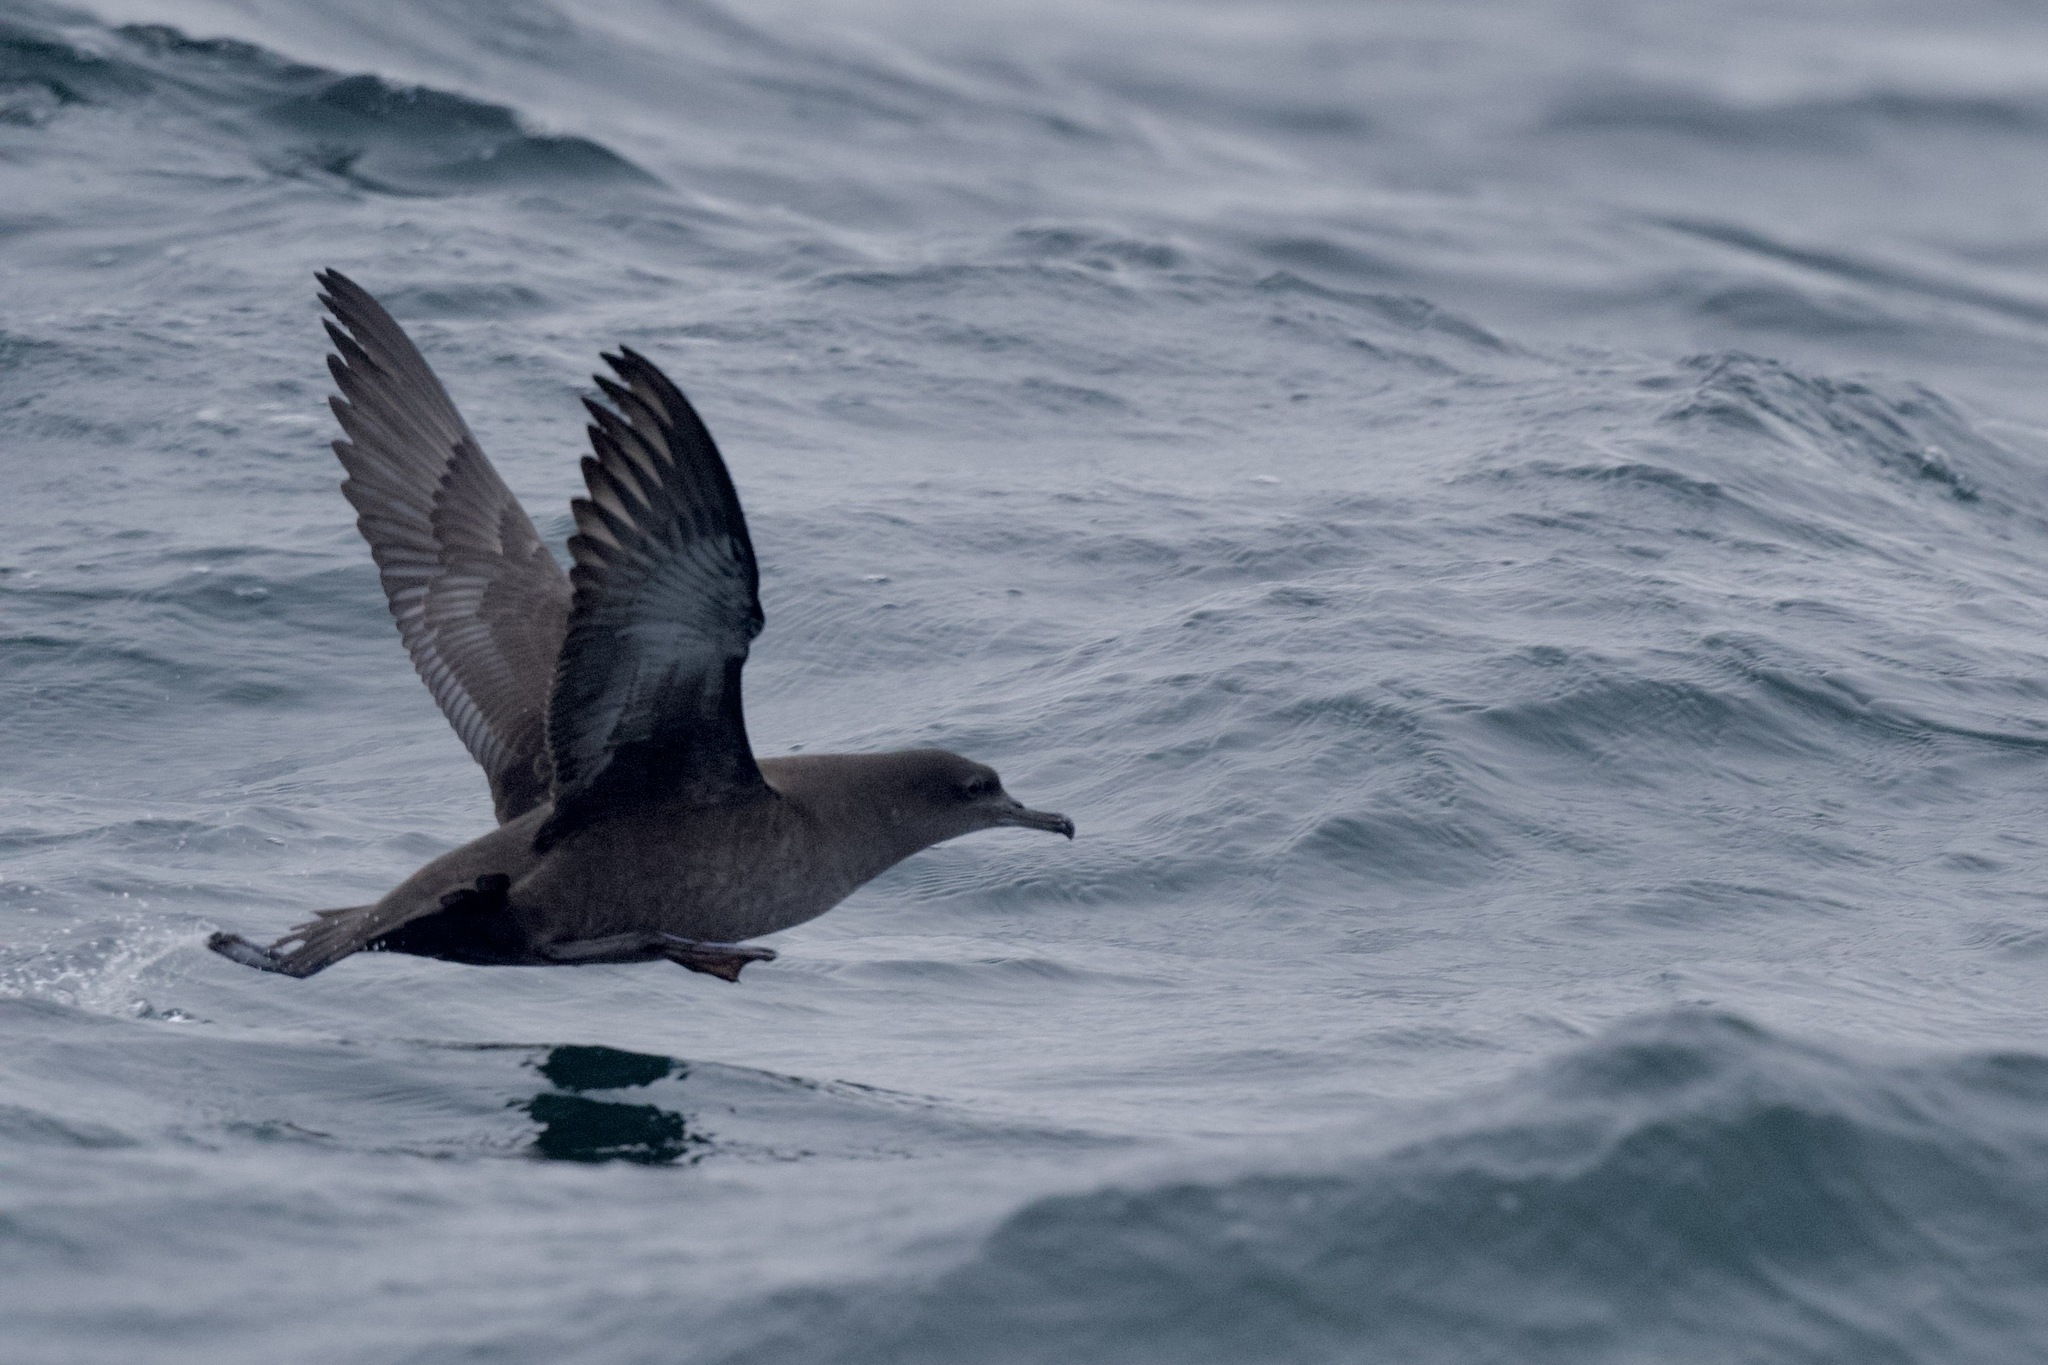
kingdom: Animalia
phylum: Chordata
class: Aves
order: Procellariiformes
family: Procellariidae
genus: Puffinus
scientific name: Puffinus griseus
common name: Sooty shearwater
